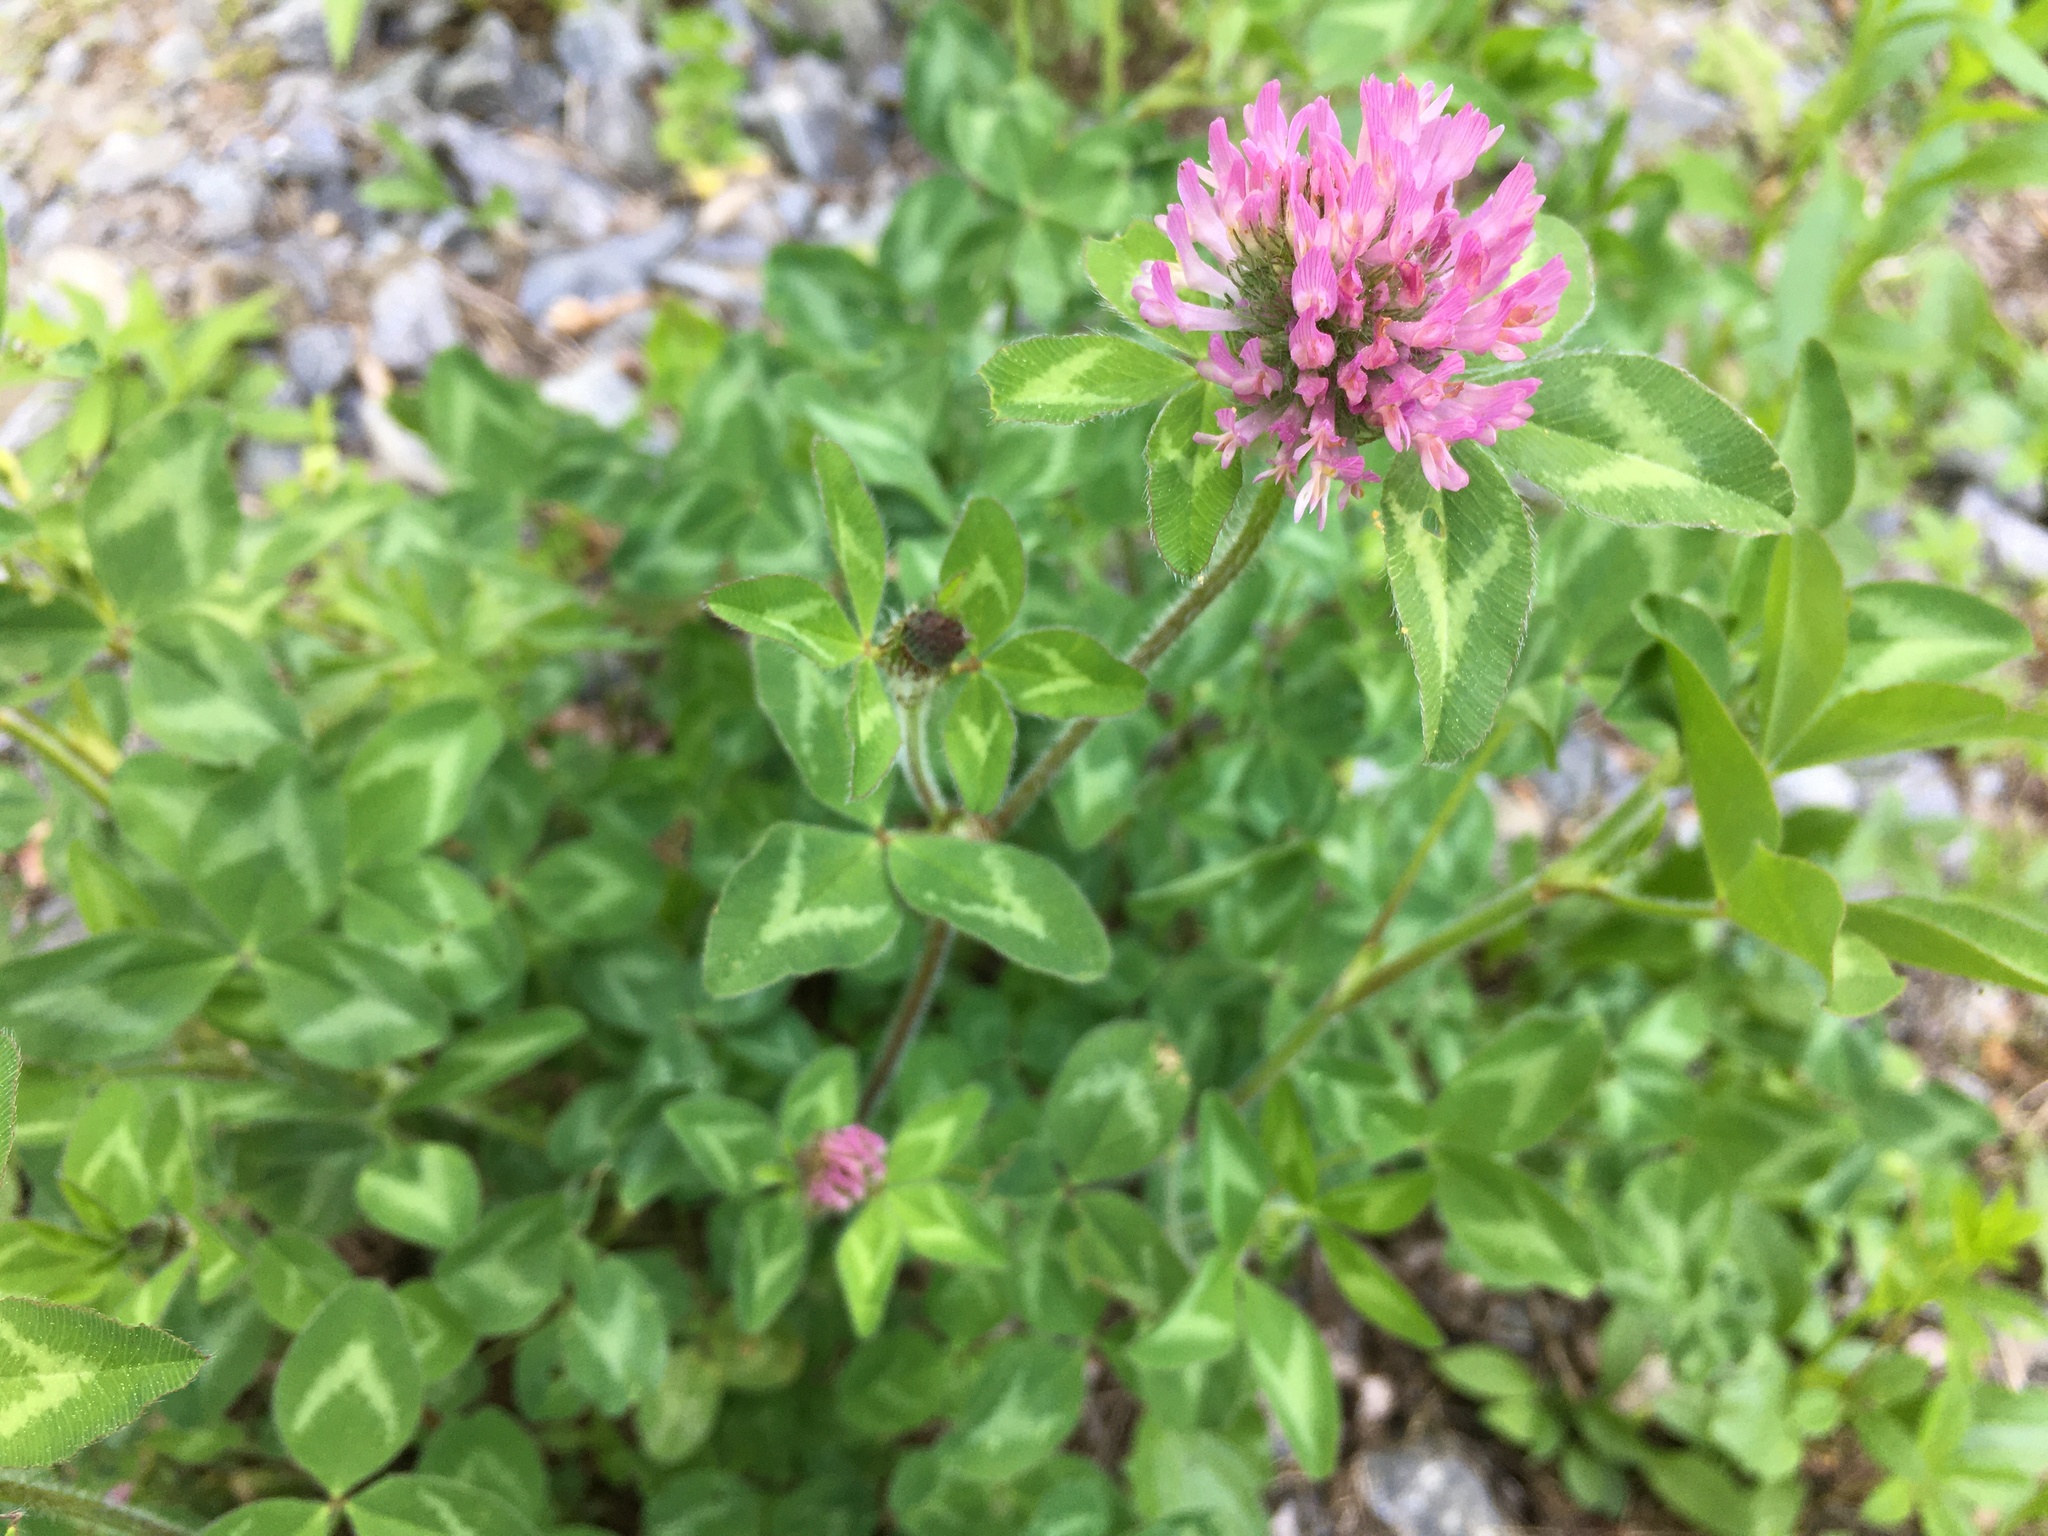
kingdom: Plantae
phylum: Tracheophyta
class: Magnoliopsida
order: Fabales
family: Fabaceae
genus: Trifolium
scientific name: Trifolium pratense
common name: Red clover
